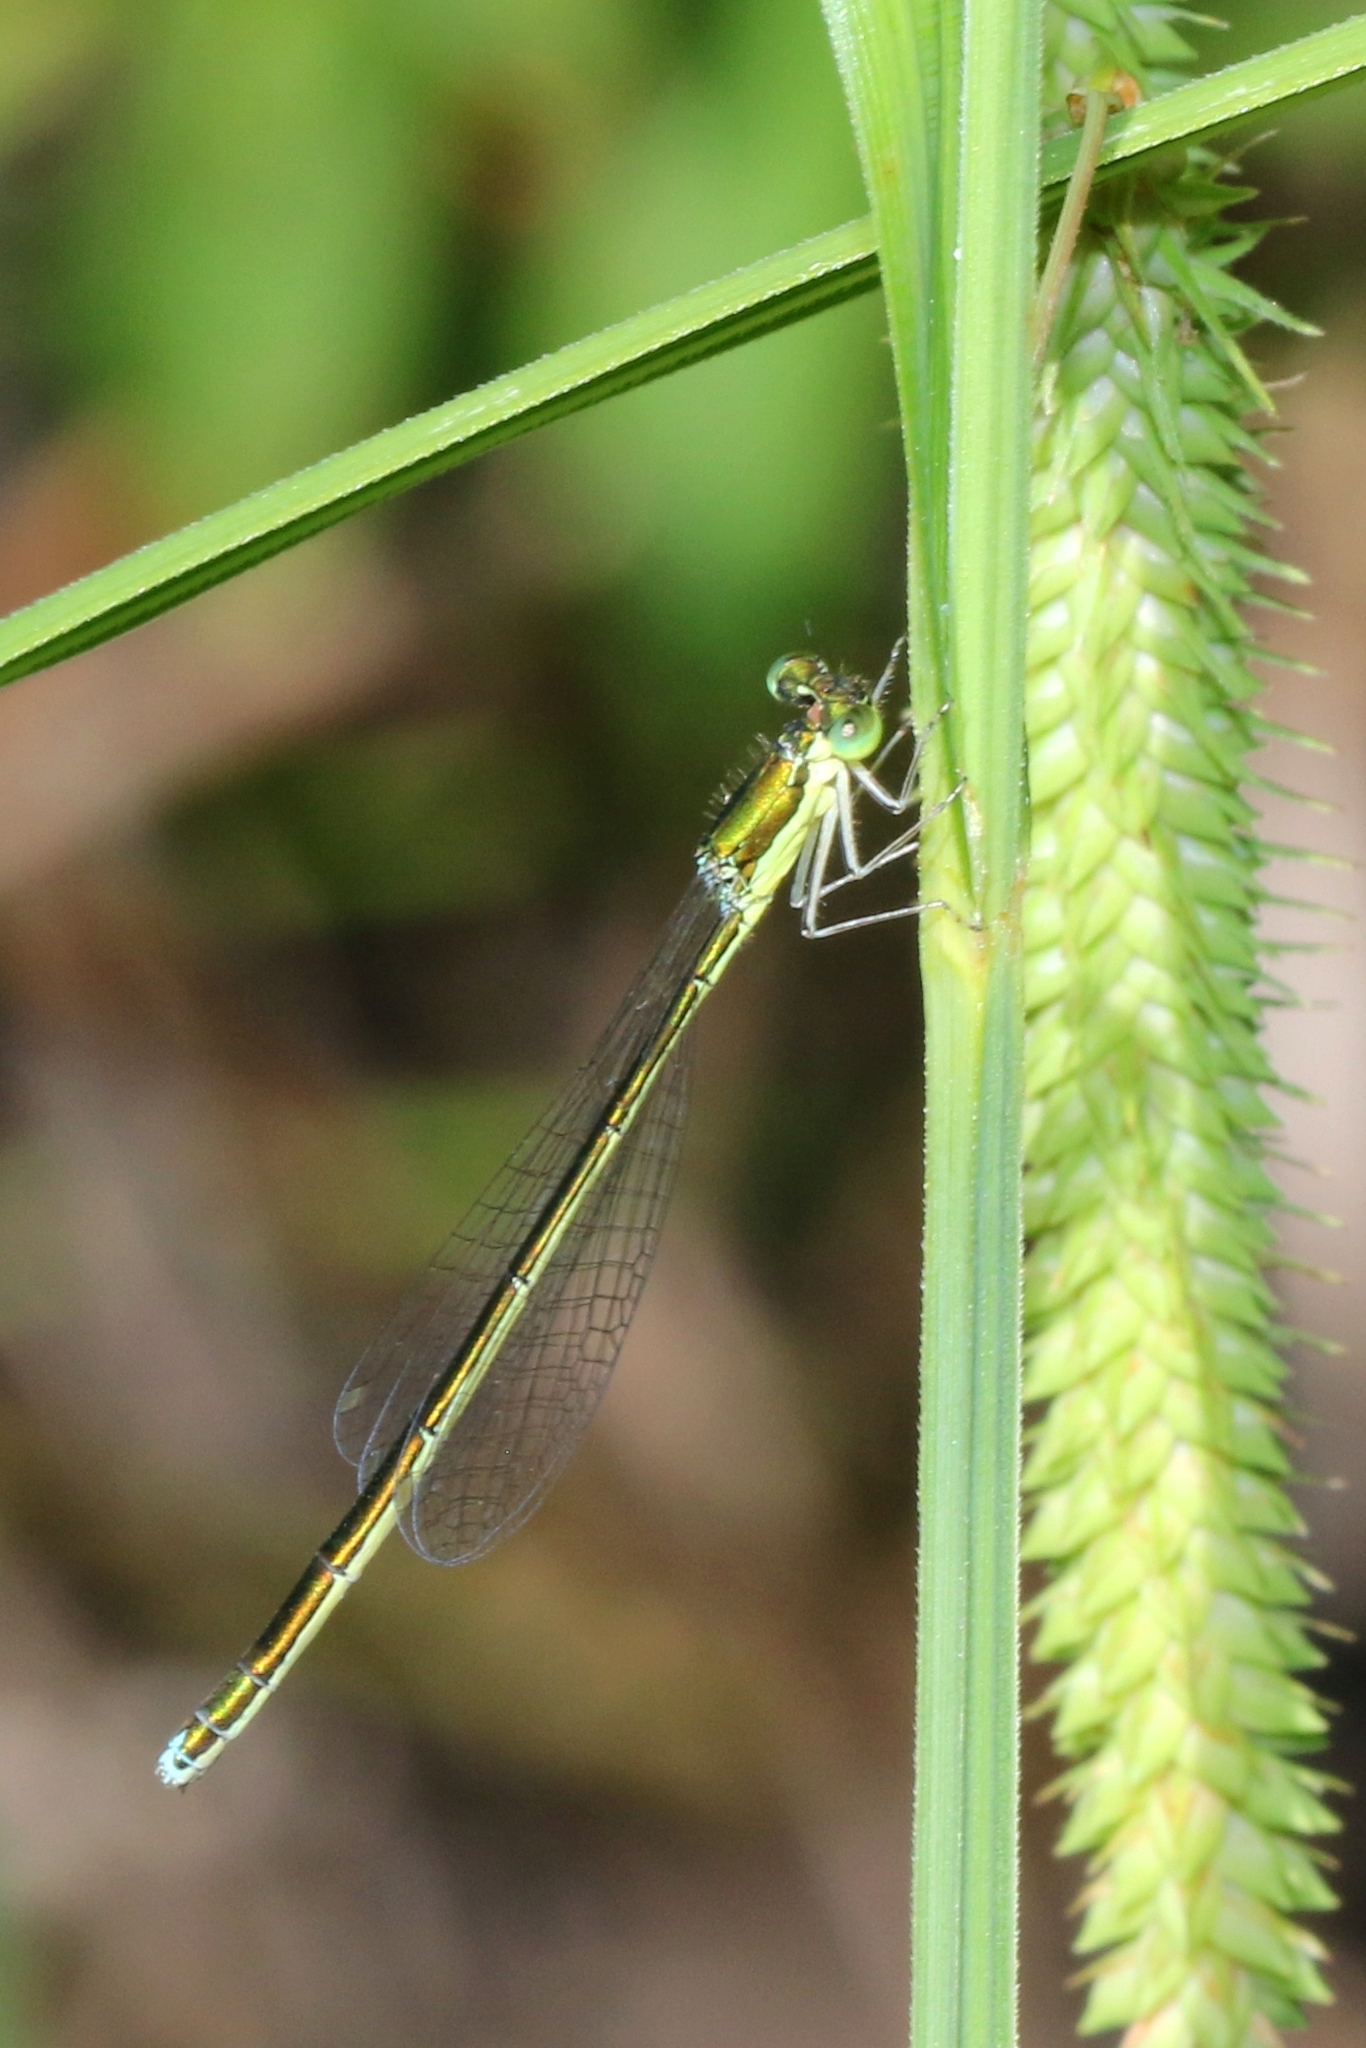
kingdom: Animalia
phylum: Arthropoda
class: Insecta
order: Odonata
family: Coenagrionidae
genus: Nehalennia
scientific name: Nehalennia irene
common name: Sedge sprite
